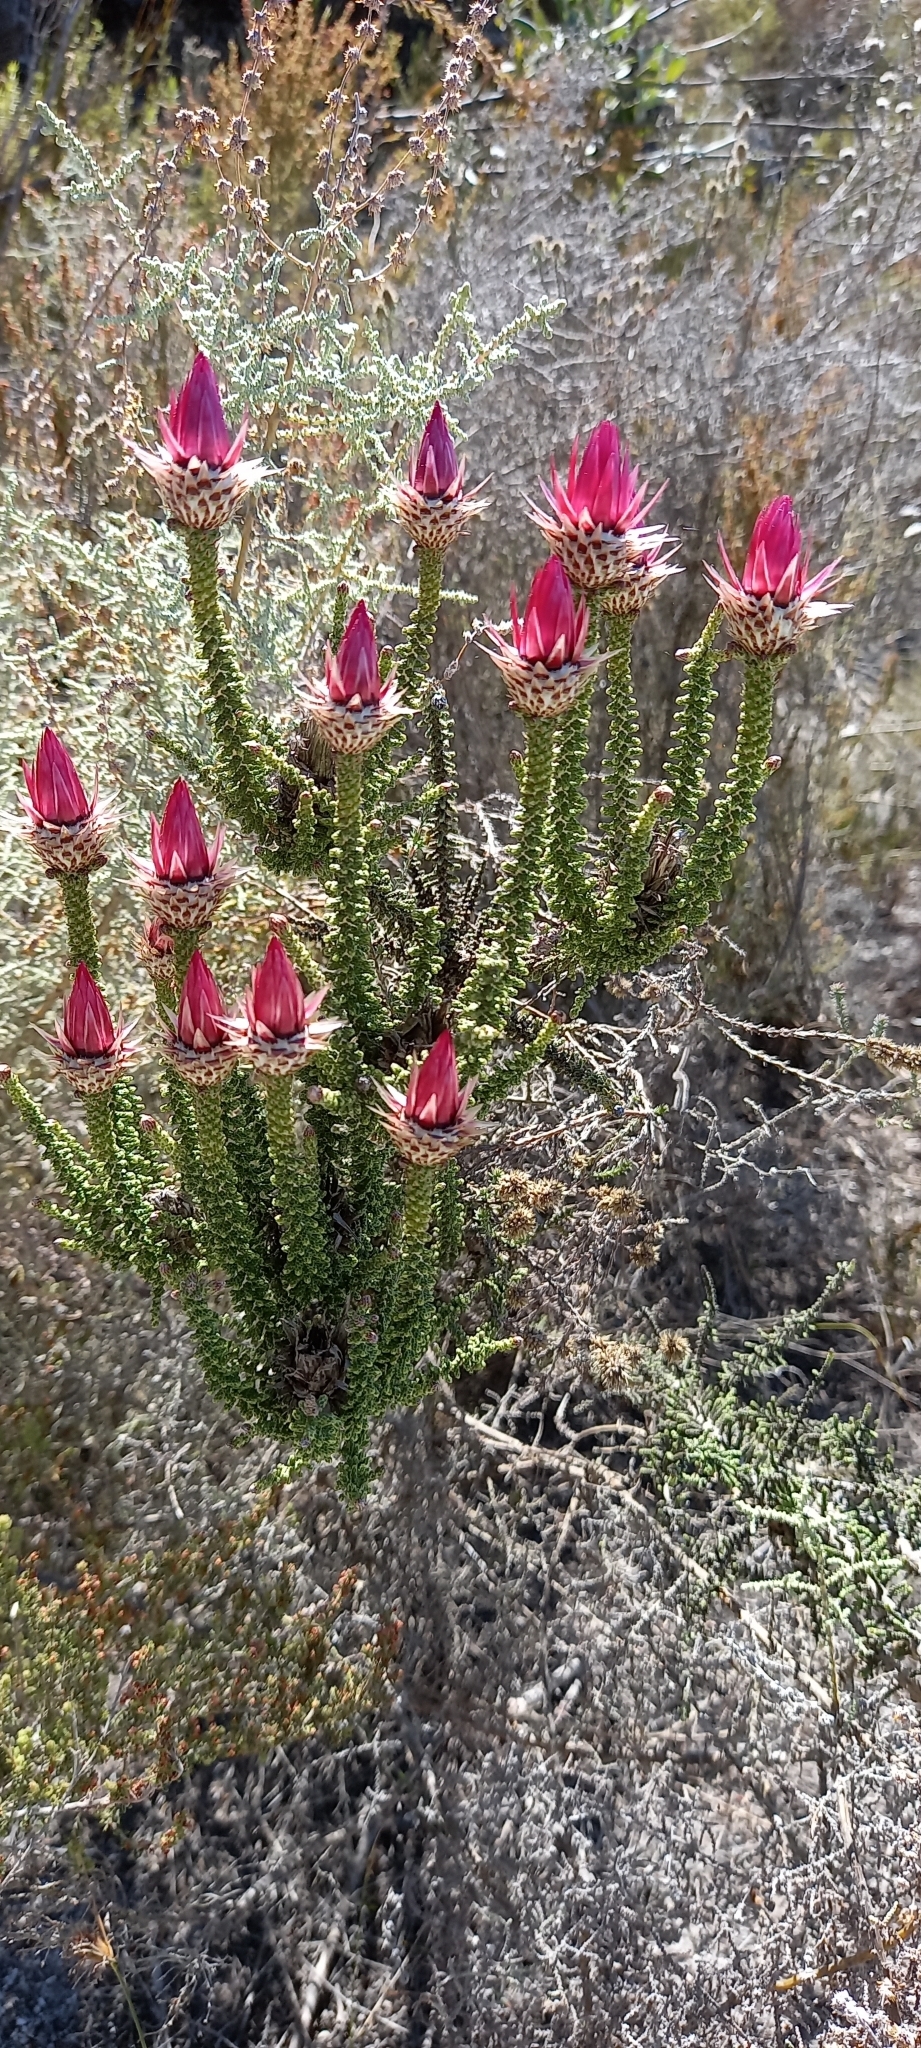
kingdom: Plantae
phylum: Tracheophyta
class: Magnoliopsida
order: Asterales
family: Asteraceae
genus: Phaenocoma
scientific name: Phaenocoma prolifera
